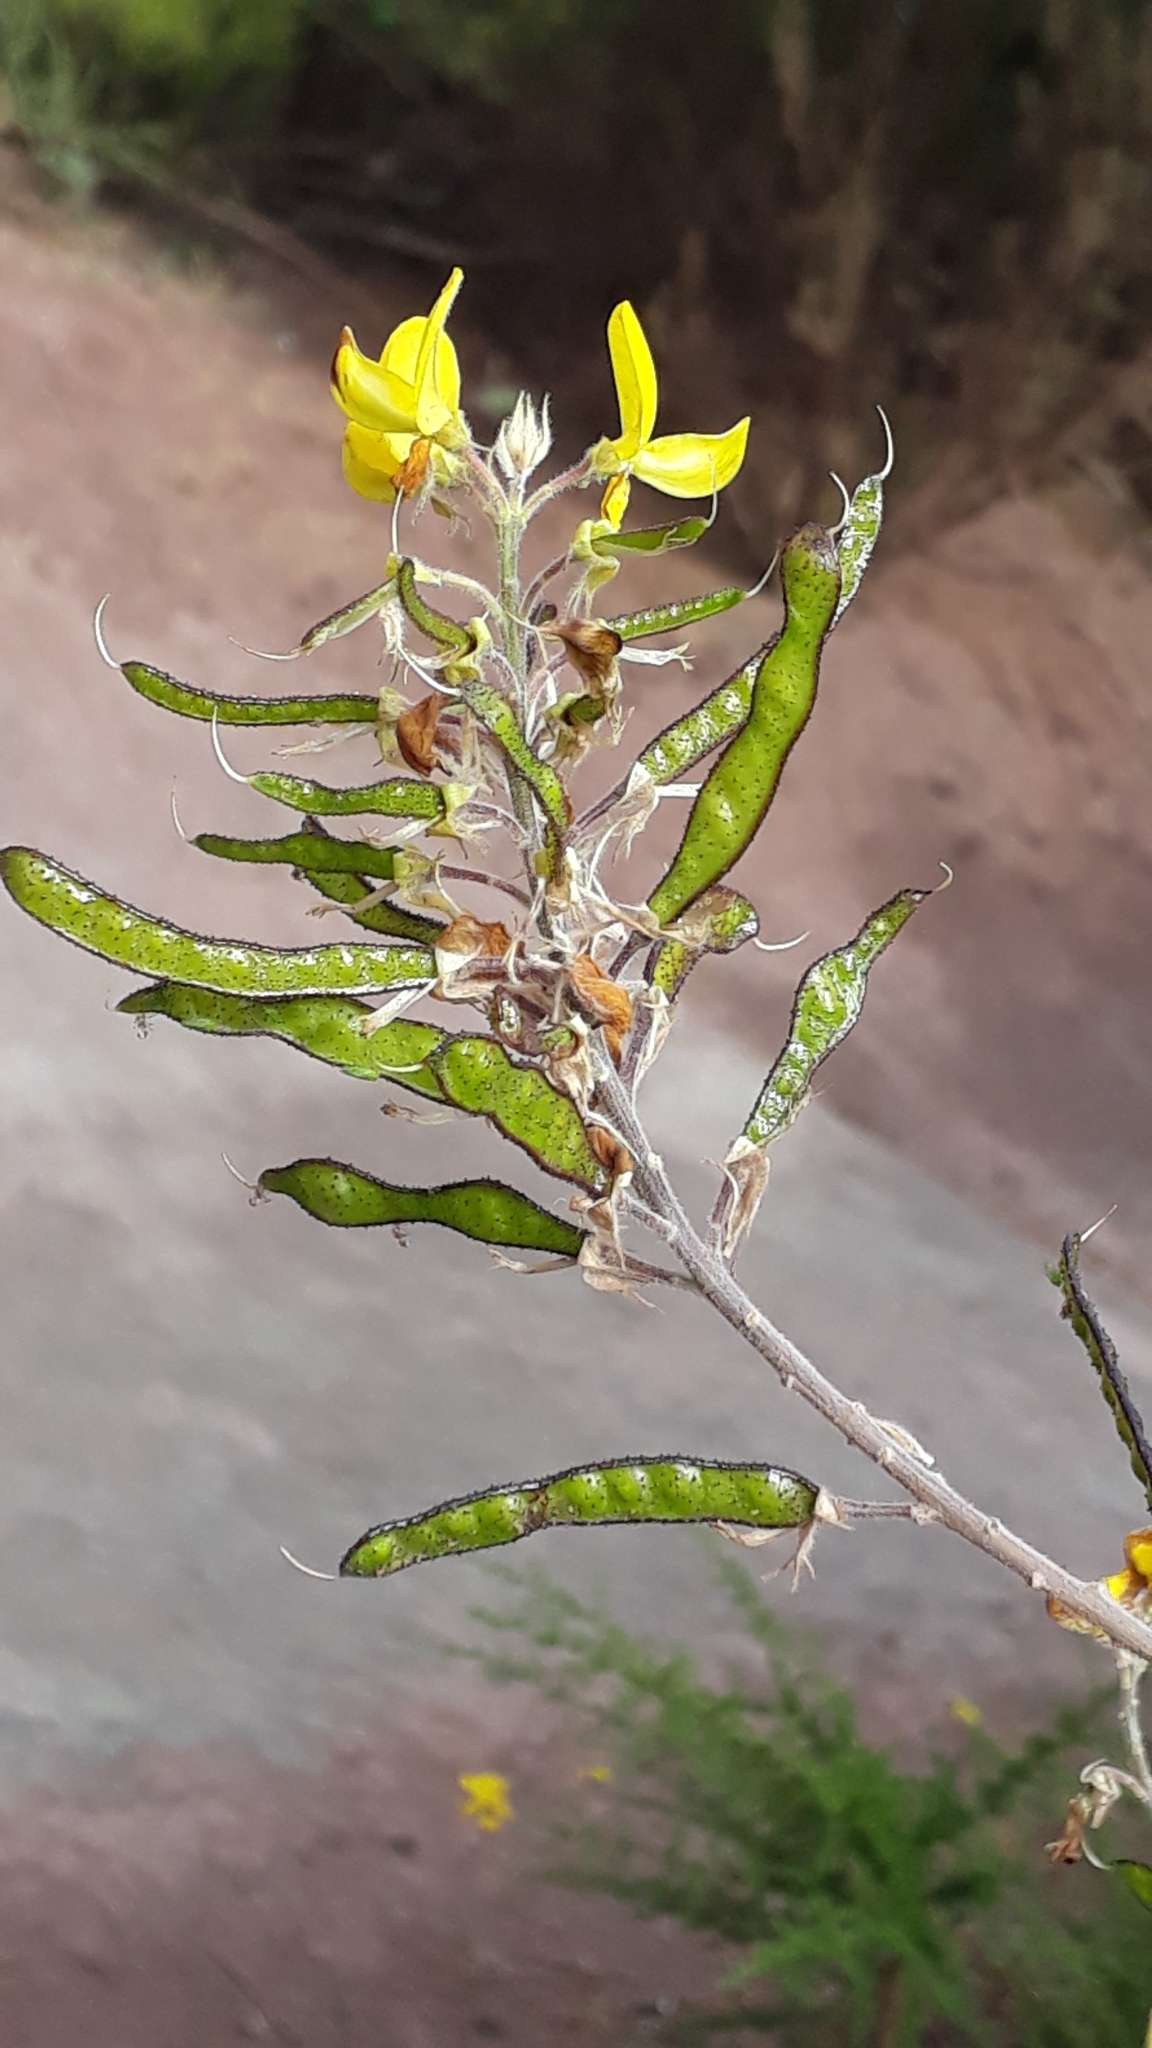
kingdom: Plantae
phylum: Tracheophyta
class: Magnoliopsida
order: Fabales
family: Fabaceae
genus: Adenocarpus
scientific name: Adenocarpus foliolosus
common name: Canary island flatpod
